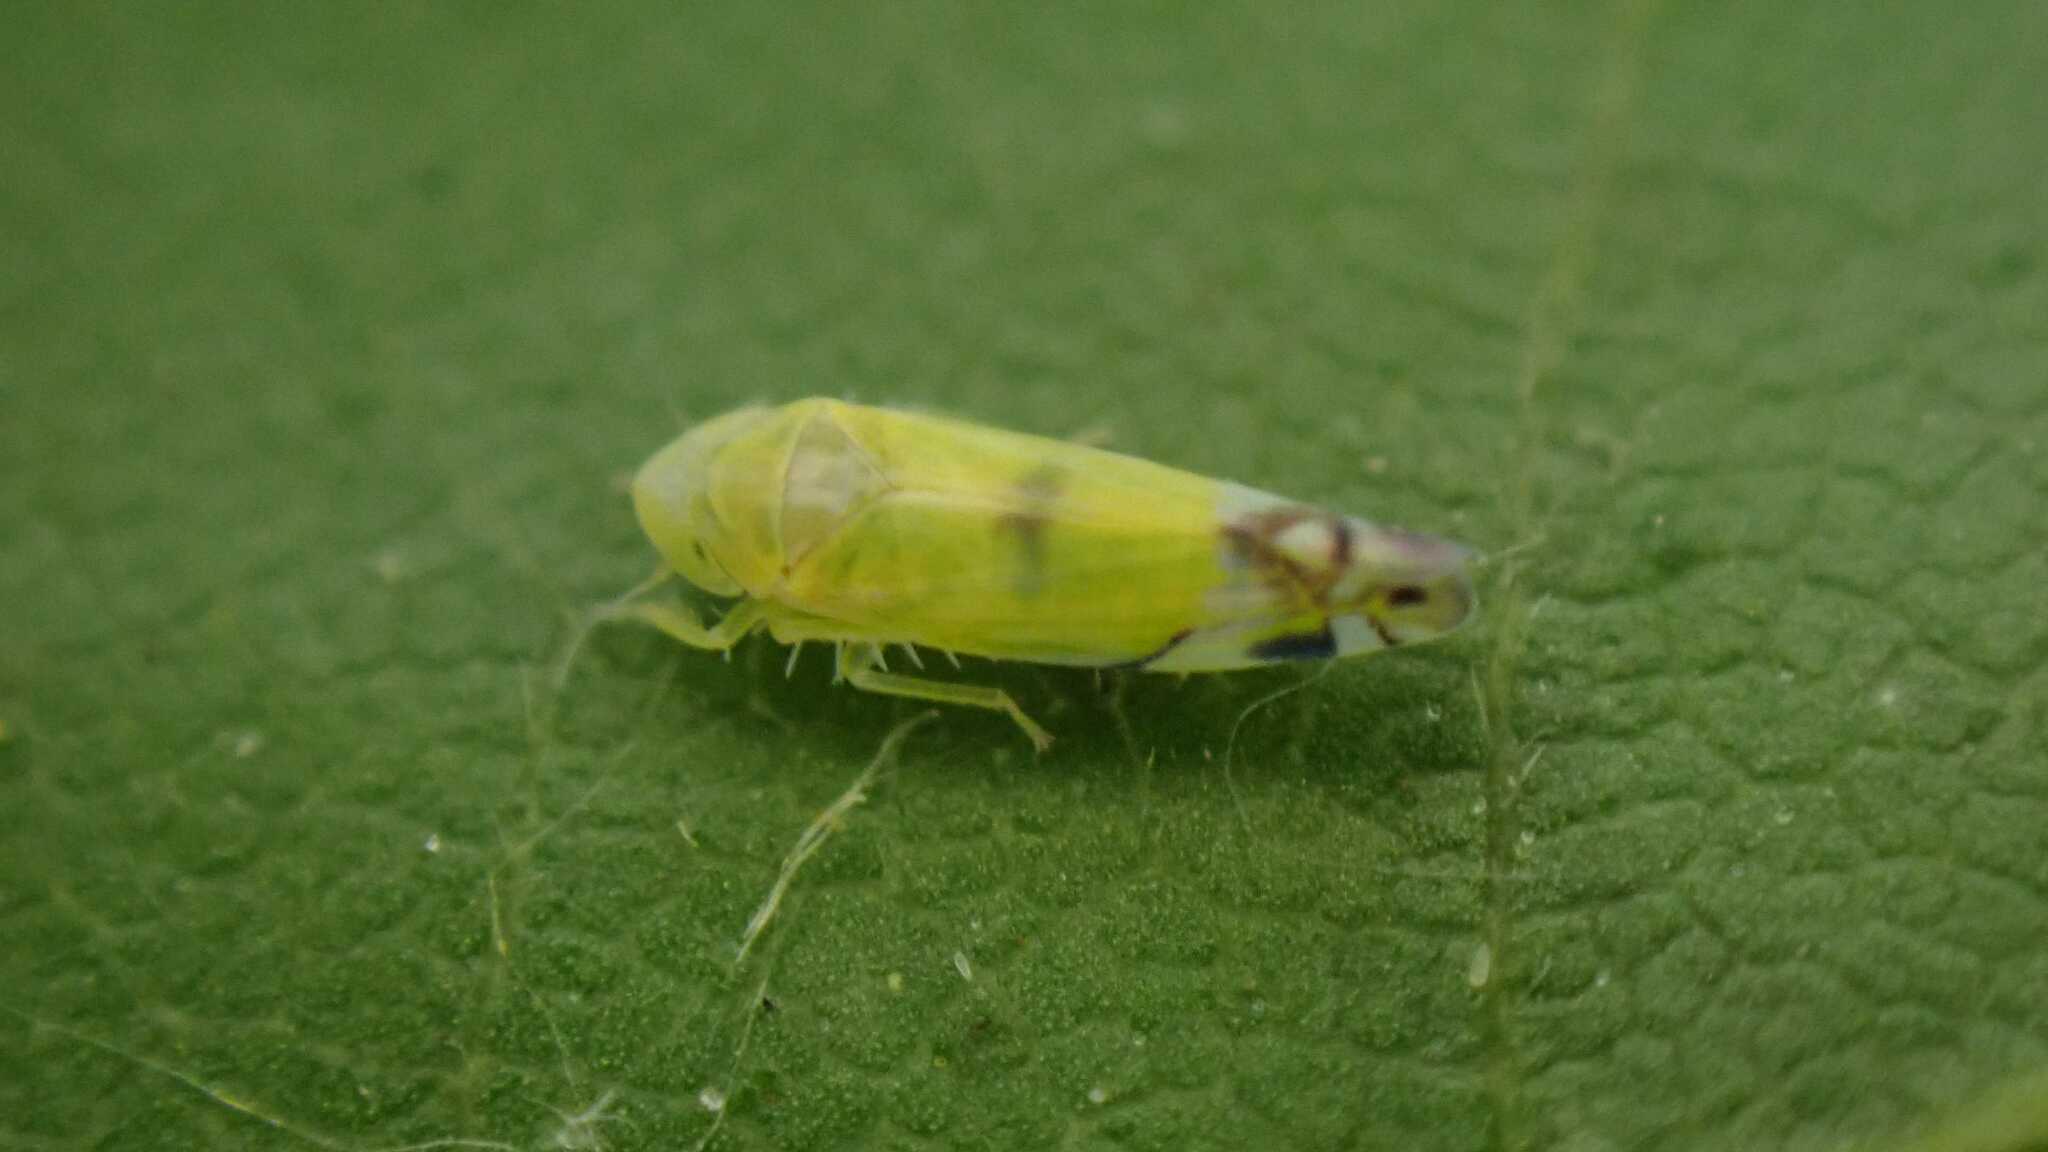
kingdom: Animalia
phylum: Arthropoda
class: Insecta
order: Hemiptera
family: Cicadellidae
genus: Zyginella
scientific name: Zyginella pulchra
